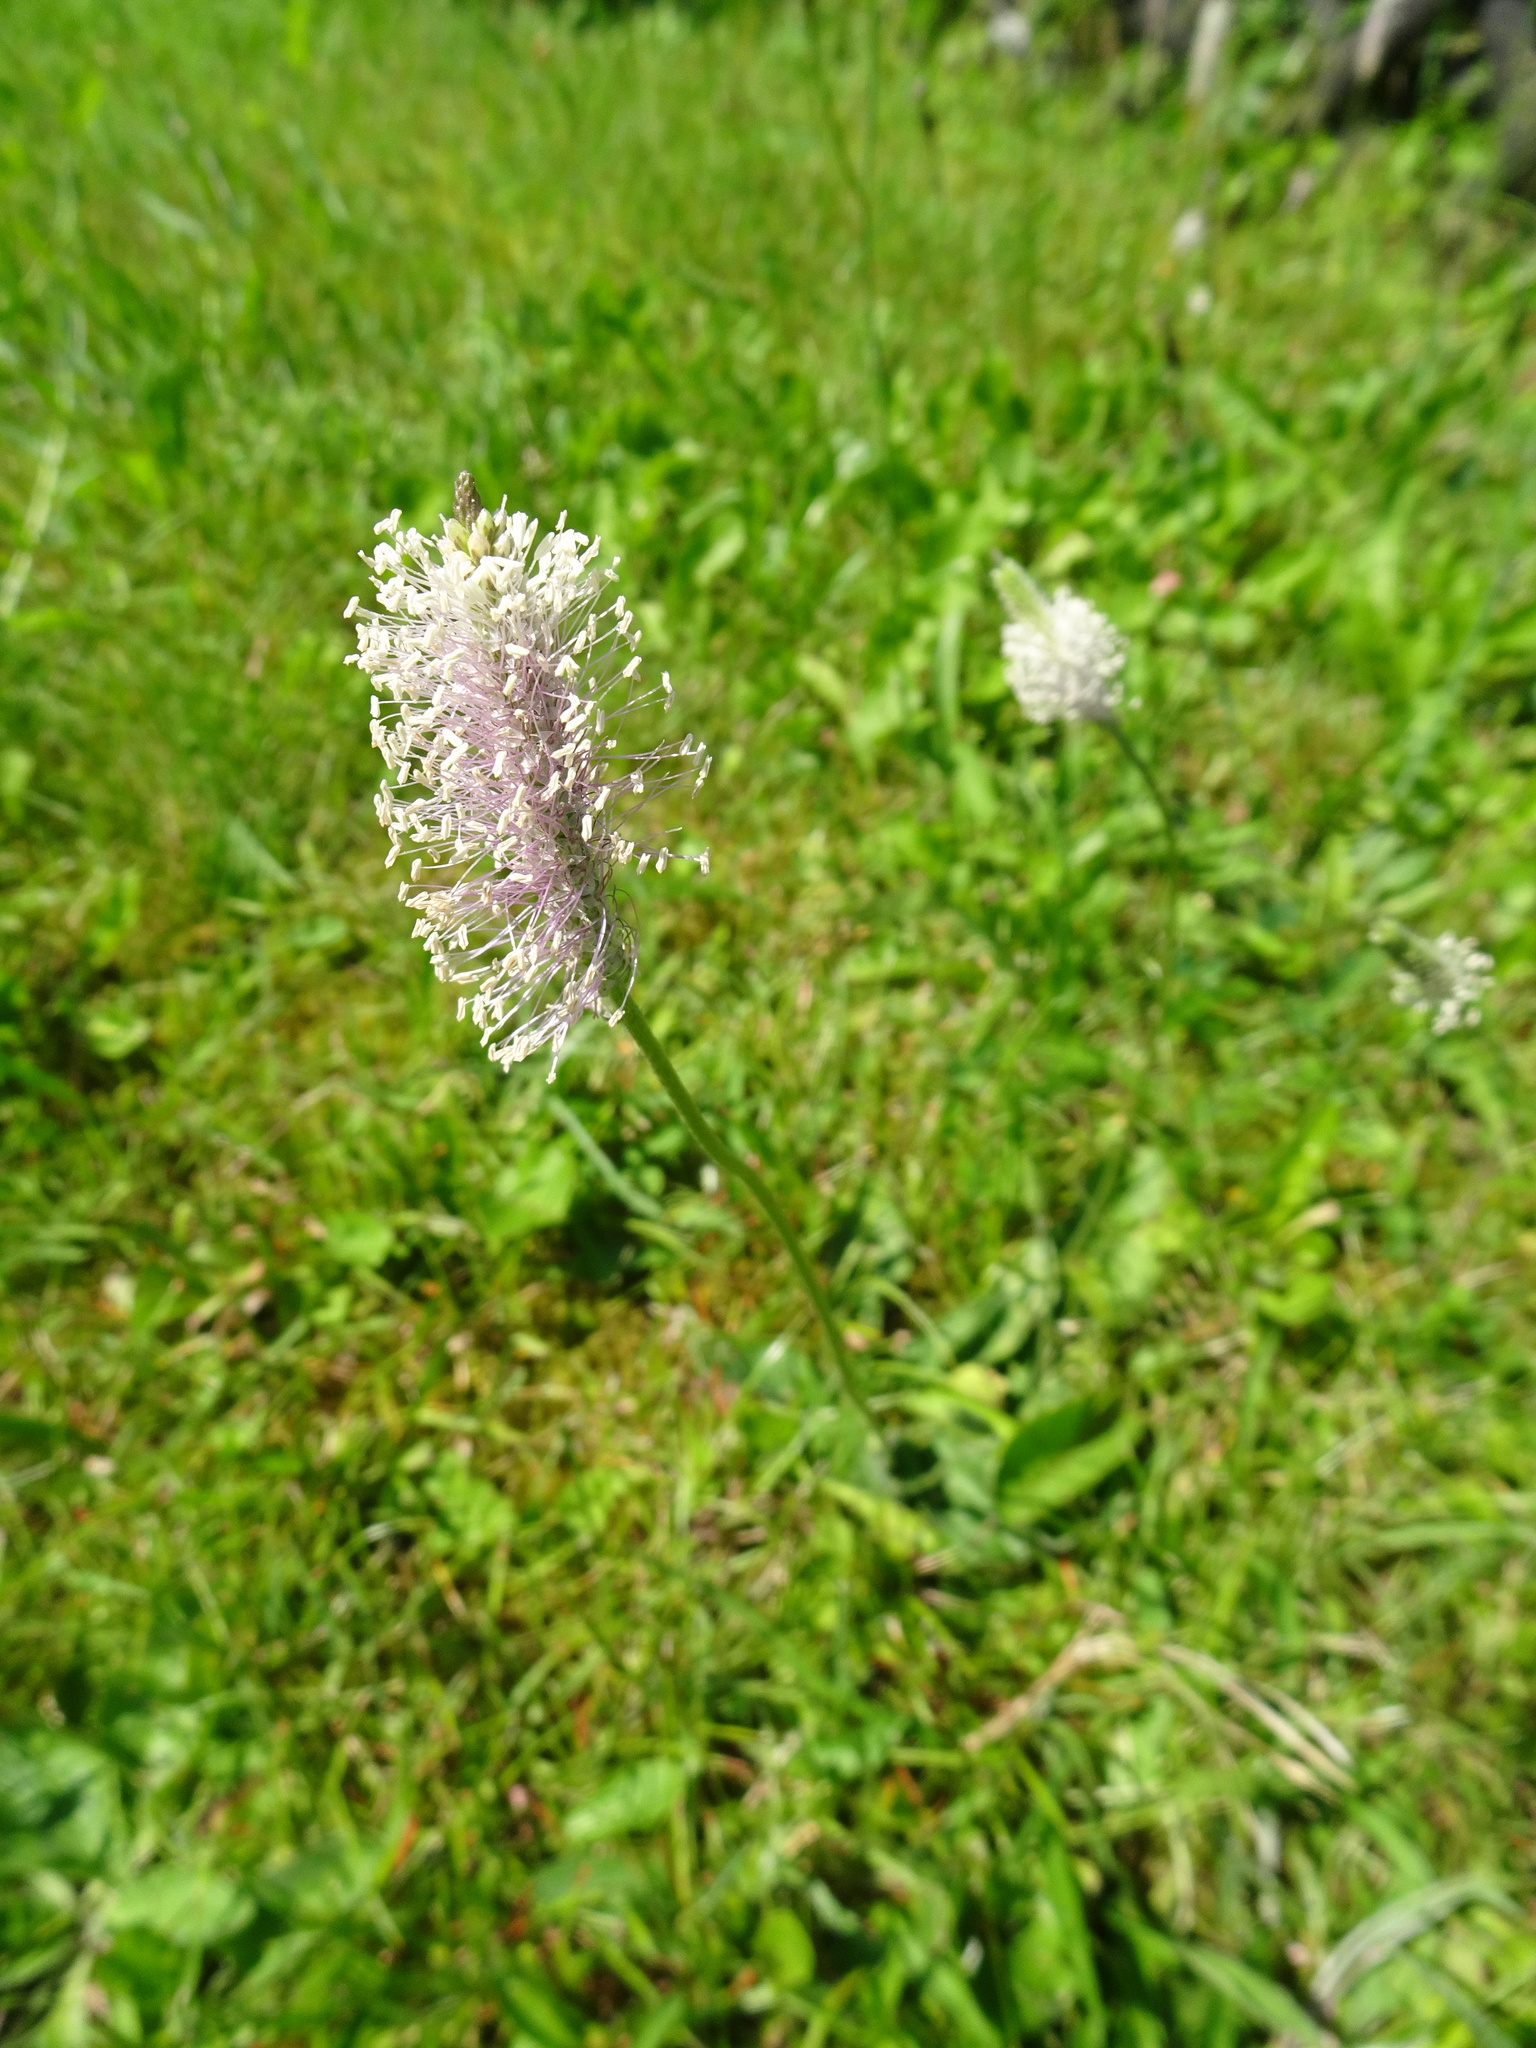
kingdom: Plantae
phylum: Tracheophyta
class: Magnoliopsida
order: Lamiales
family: Plantaginaceae
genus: Plantago
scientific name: Plantago media
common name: Hoary plantain
